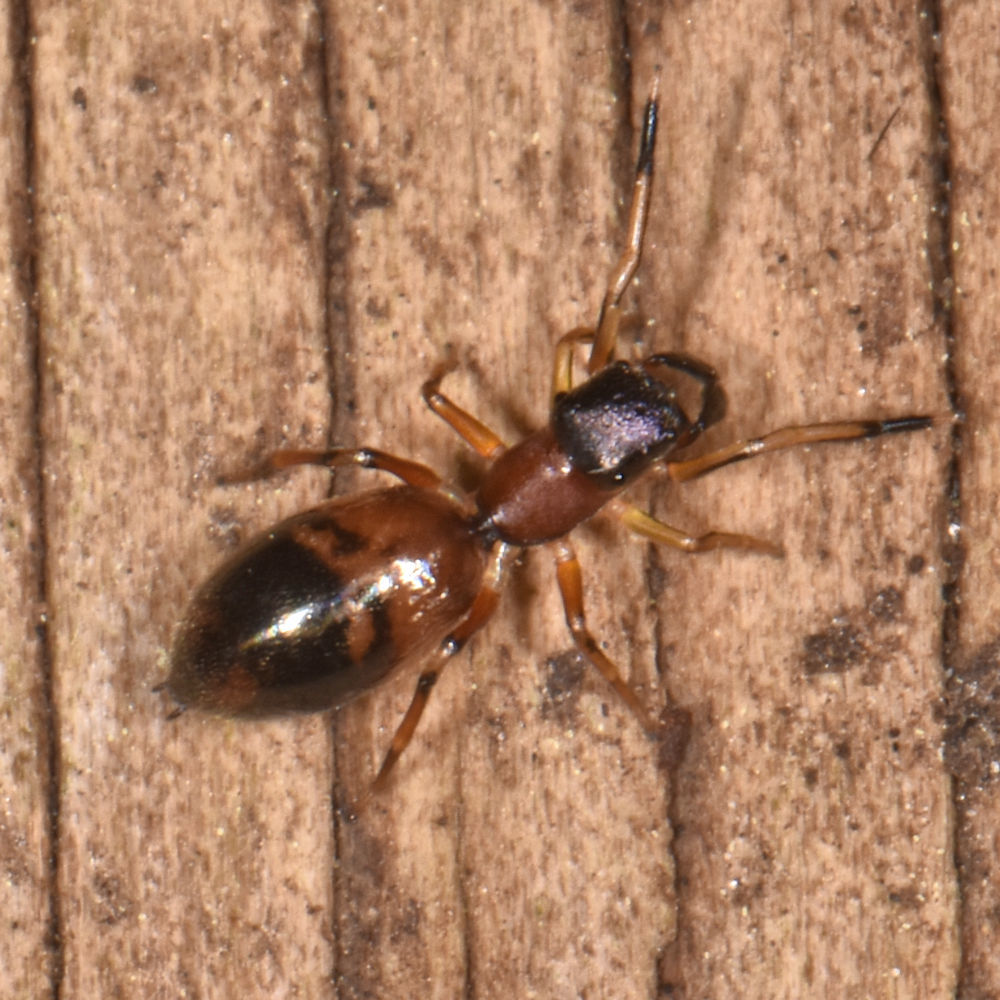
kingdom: Animalia
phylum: Arthropoda
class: Arachnida
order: Araneae
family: Salticidae
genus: Myrmarachne
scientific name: Myrmarachne formicaria
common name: Ant mimic jumping spider
